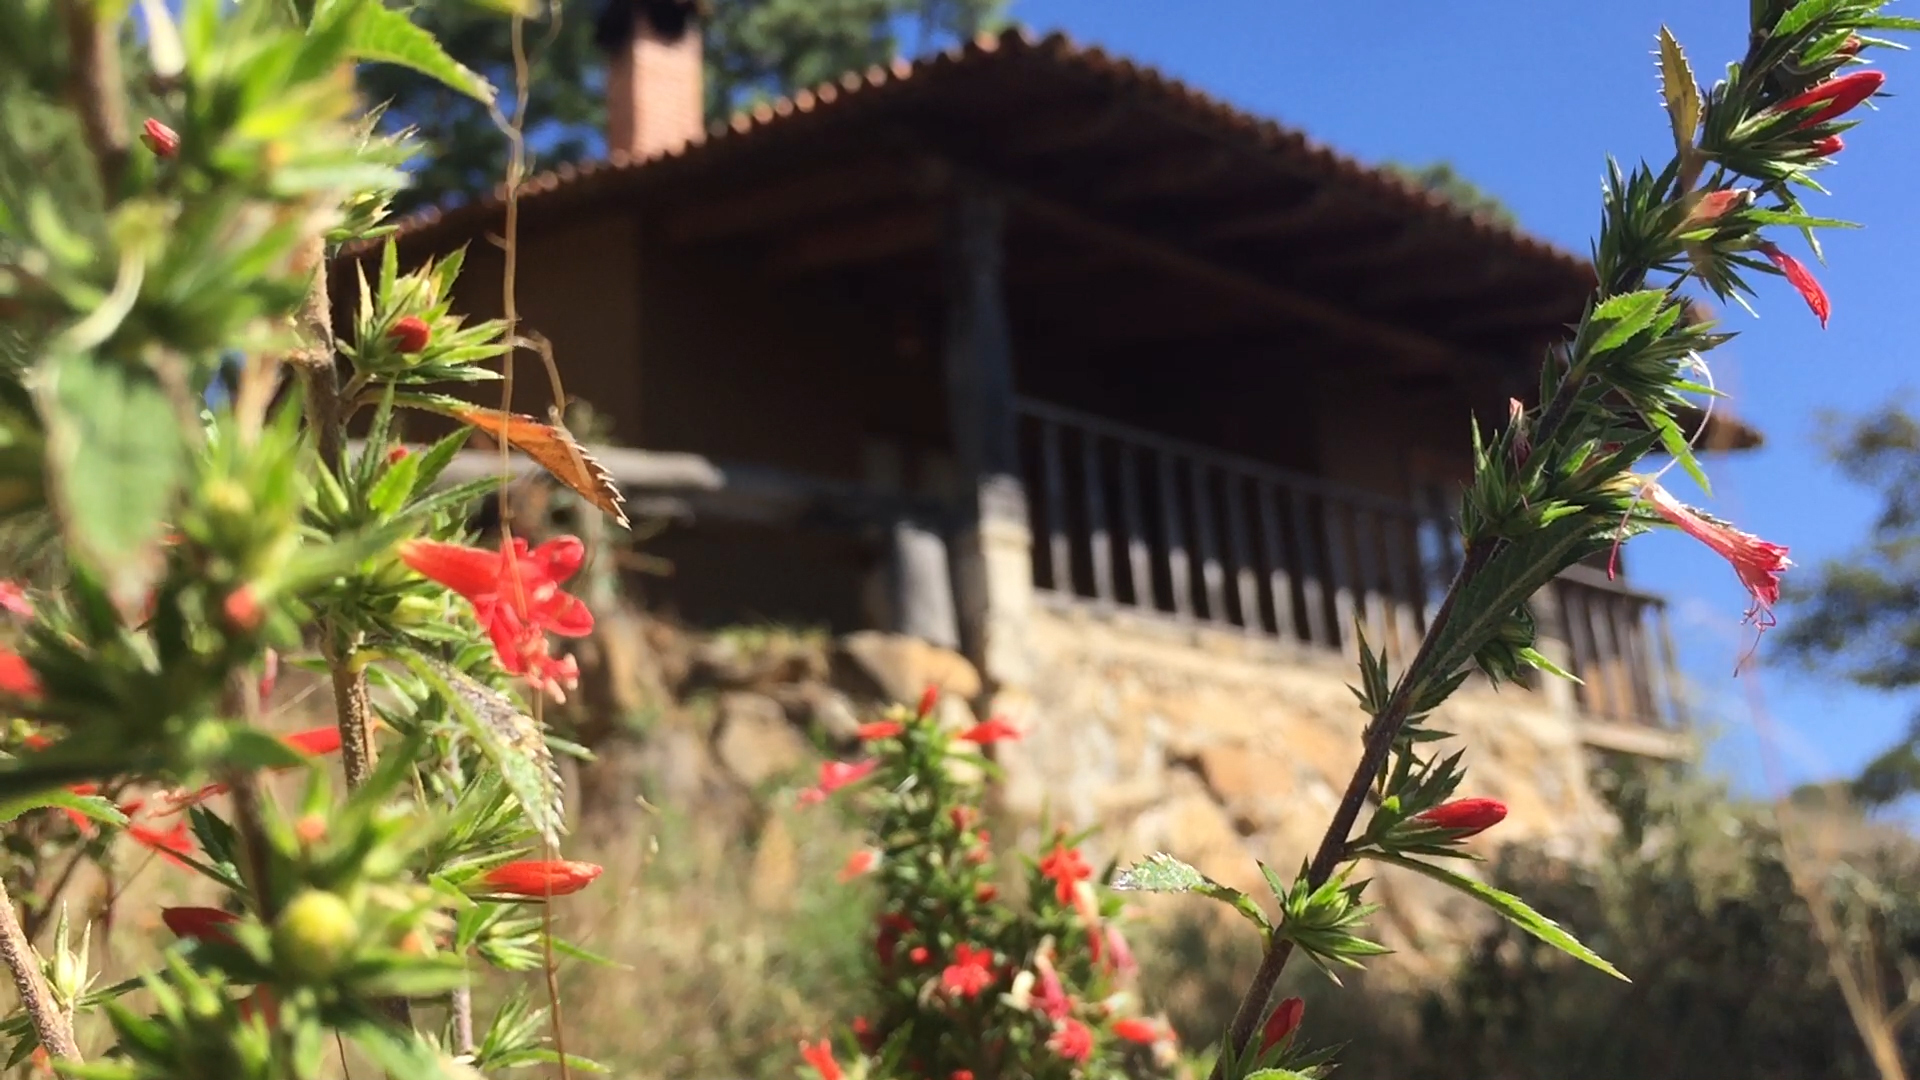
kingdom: Plantae
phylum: Tracheophyta
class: Magnoliopsida
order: Ericales
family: Polemoniaceae
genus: Loeselia
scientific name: Loeselia mexicana
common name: Mexican false calico
